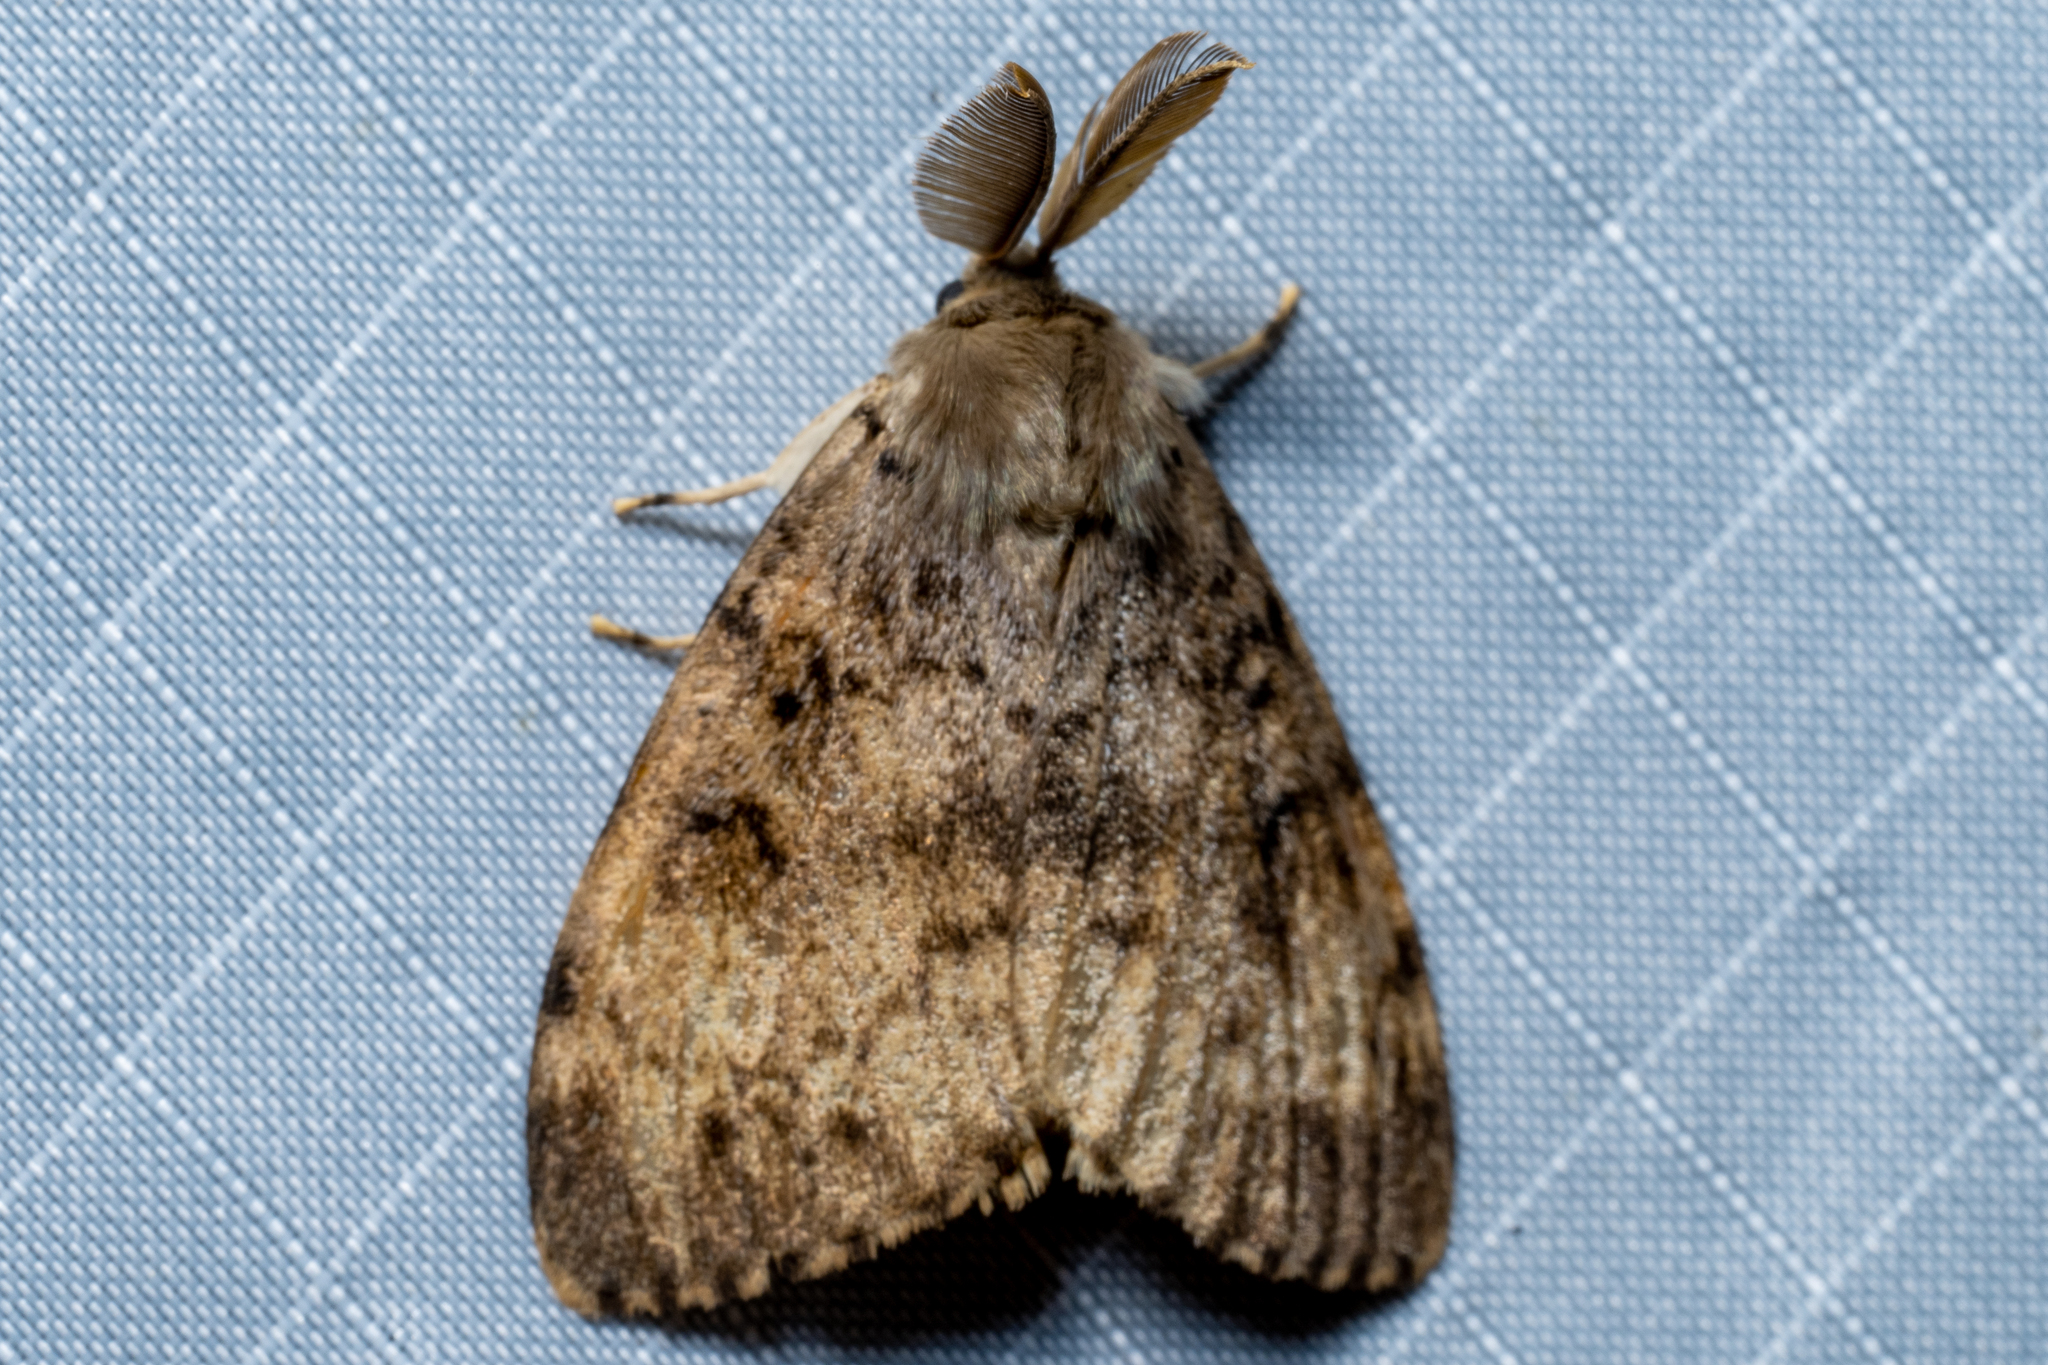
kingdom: Animalia
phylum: Arthropoda
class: Insecta
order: Lepidoptera
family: Erebidae
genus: Lymantria
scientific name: Lymantria dispar
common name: Gypsy moth
